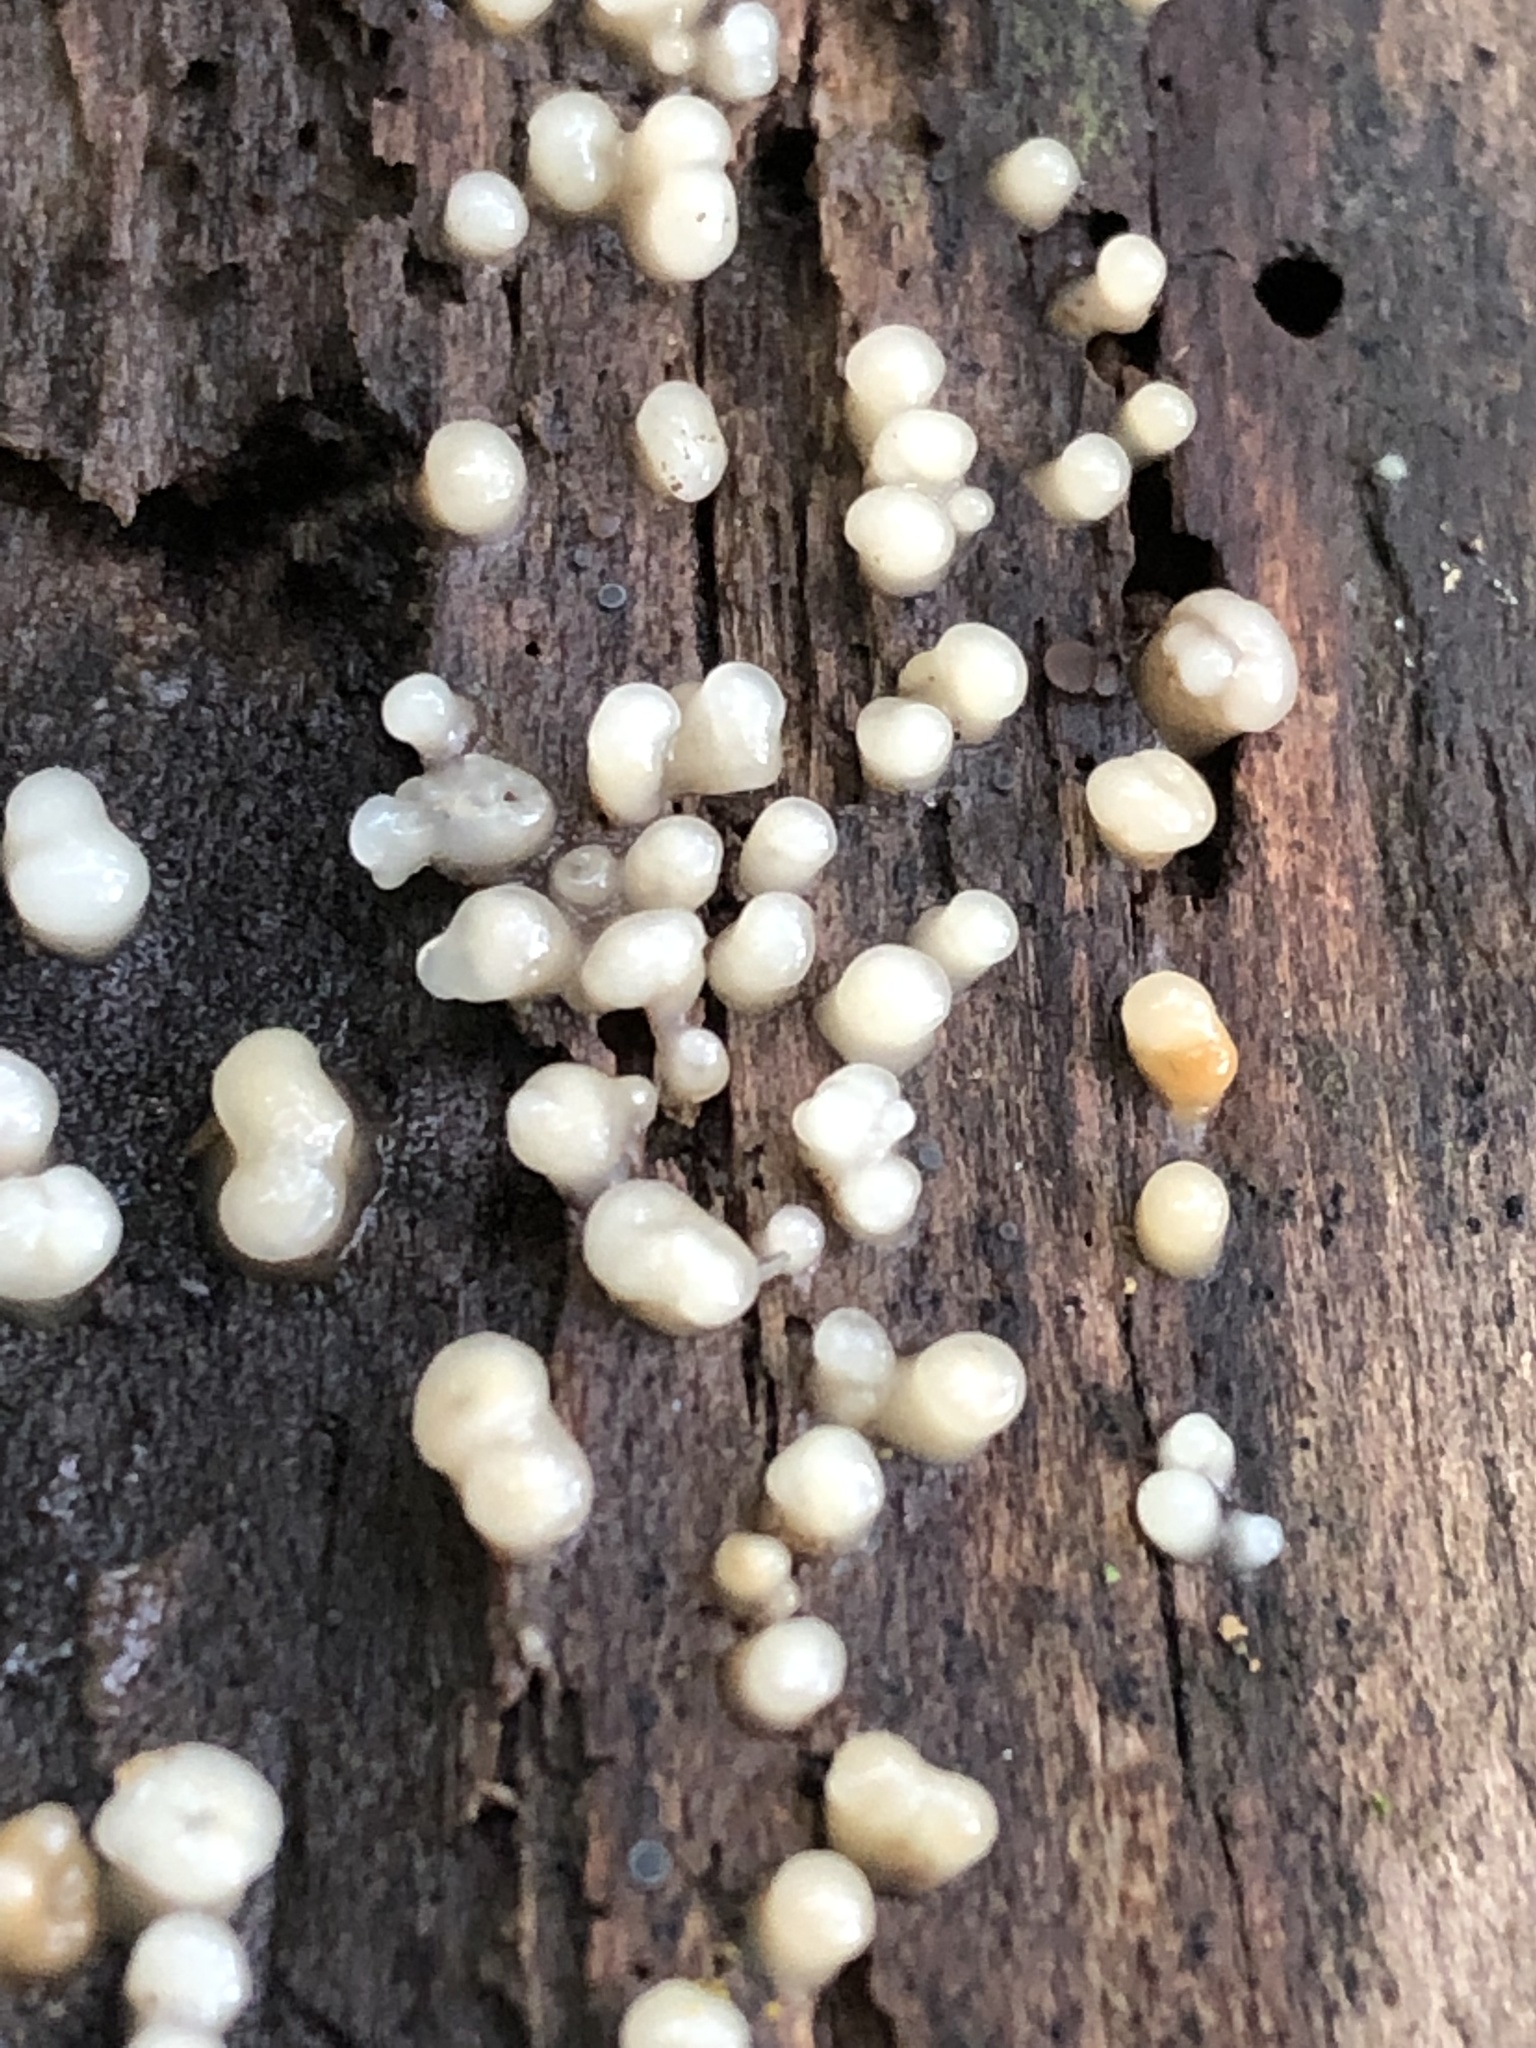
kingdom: Fungi
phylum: Basidiomycota
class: Atractiellomycetes
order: Atractiellales
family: Phleogenaceae
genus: Helicogloea
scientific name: Helicogloea compressa
